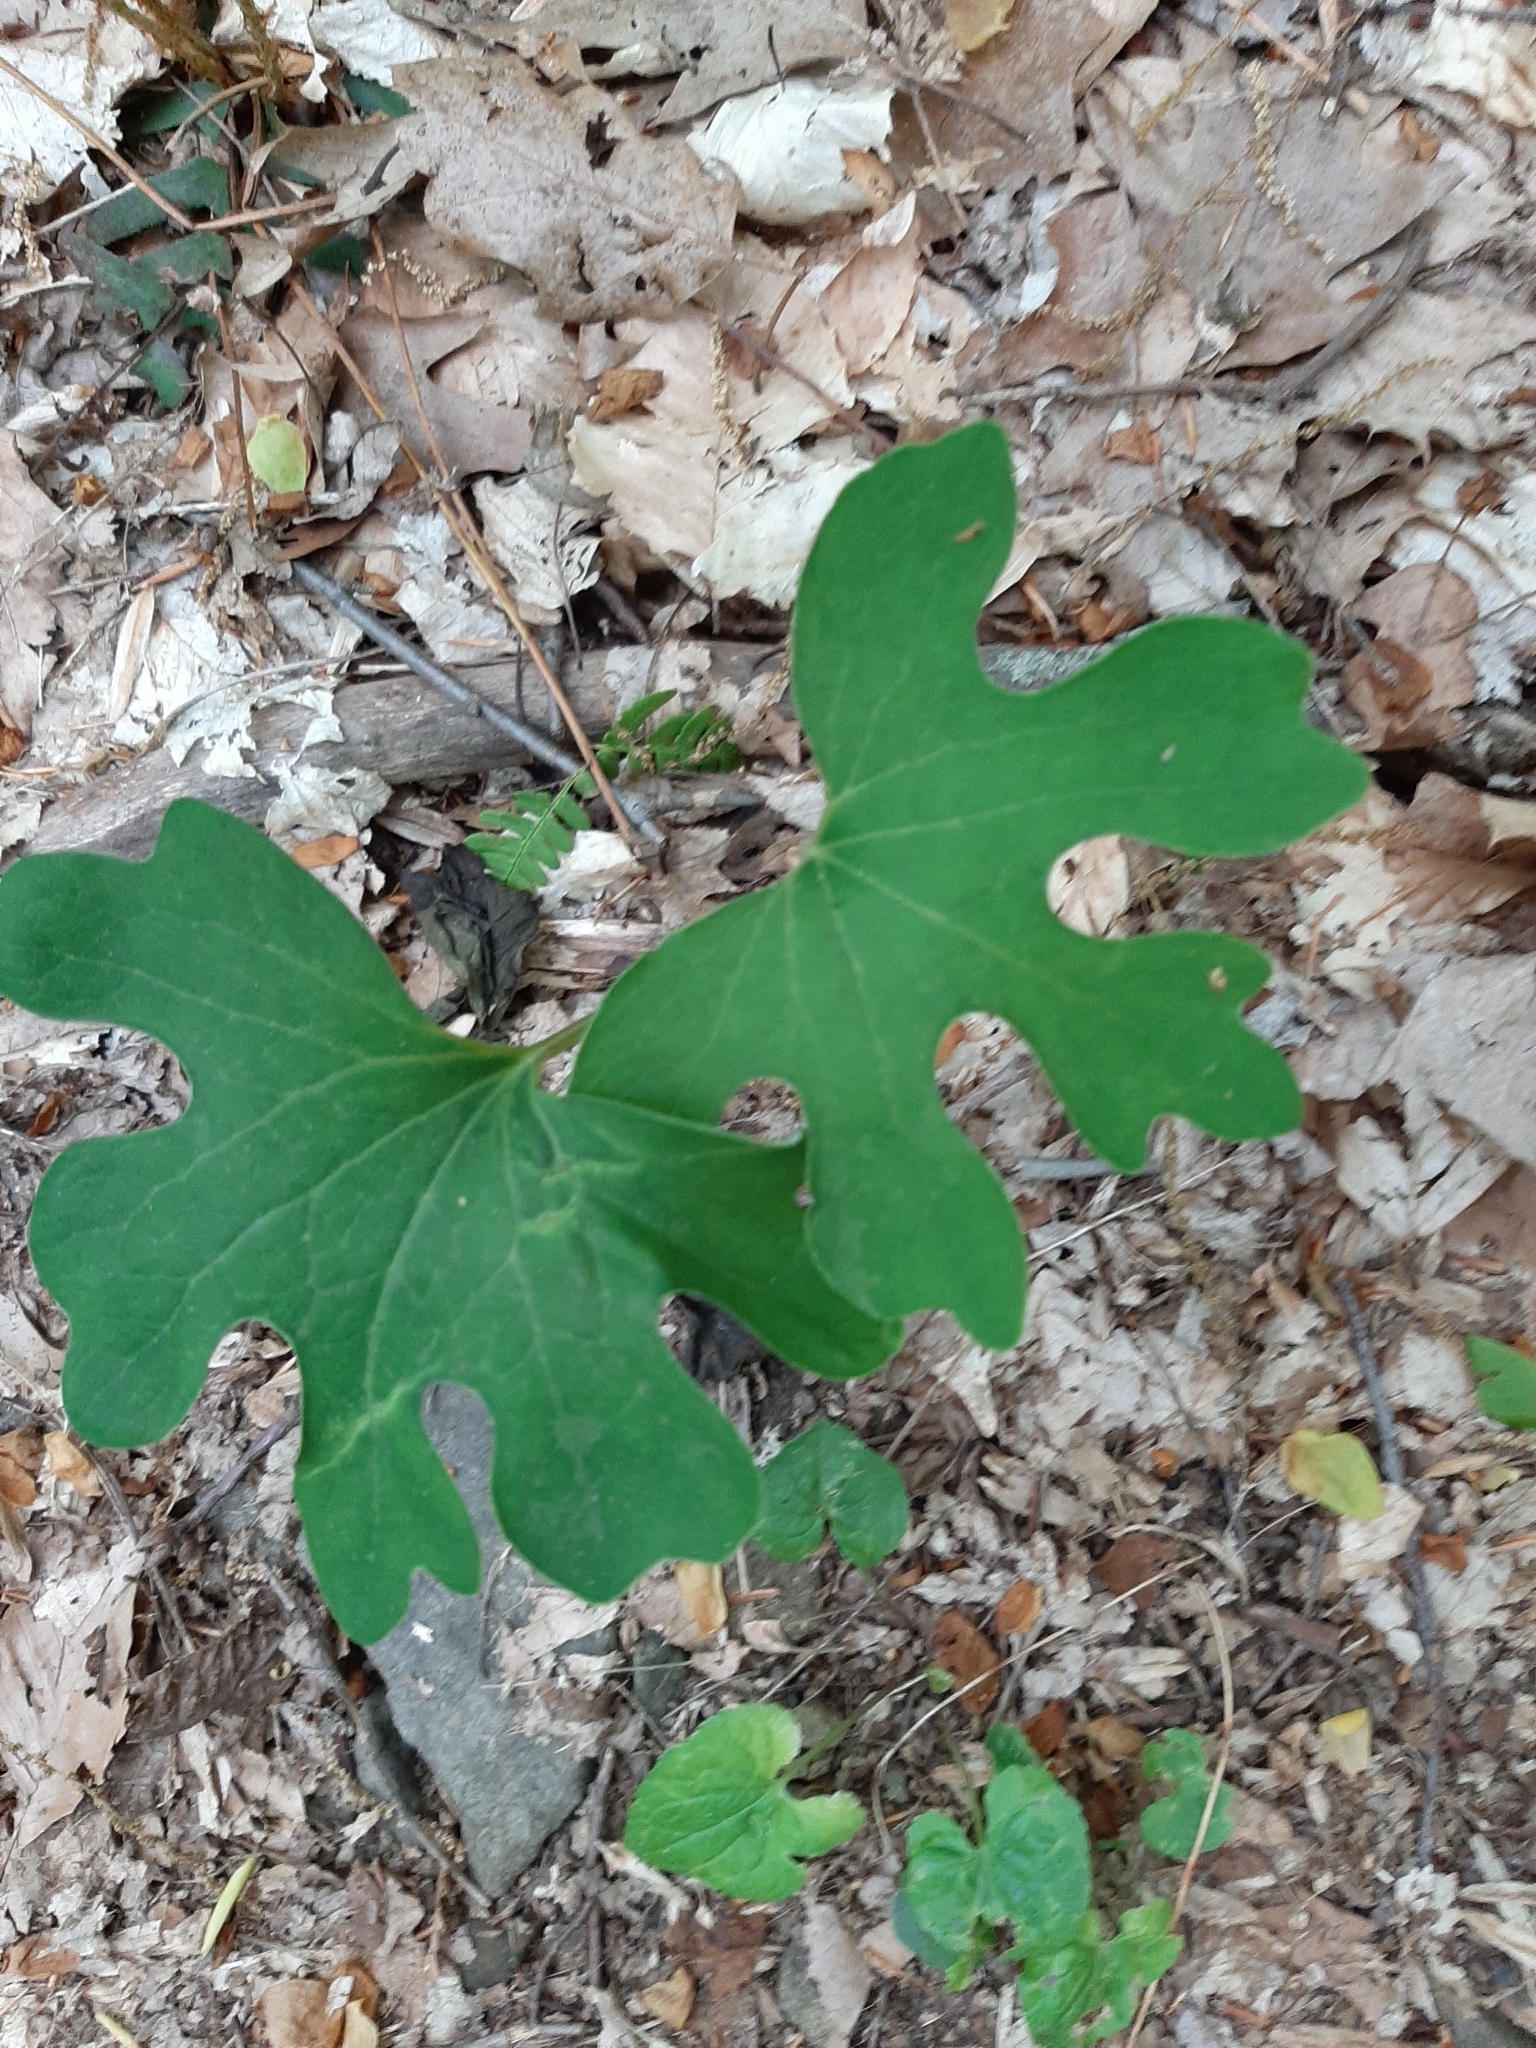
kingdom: Plantae
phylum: Tracheophyta
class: Magnoliopsida
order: Ranunculales
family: Papaveraceae
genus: Sanguinaria
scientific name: Sanguinaria canadensis
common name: Bloodroot
